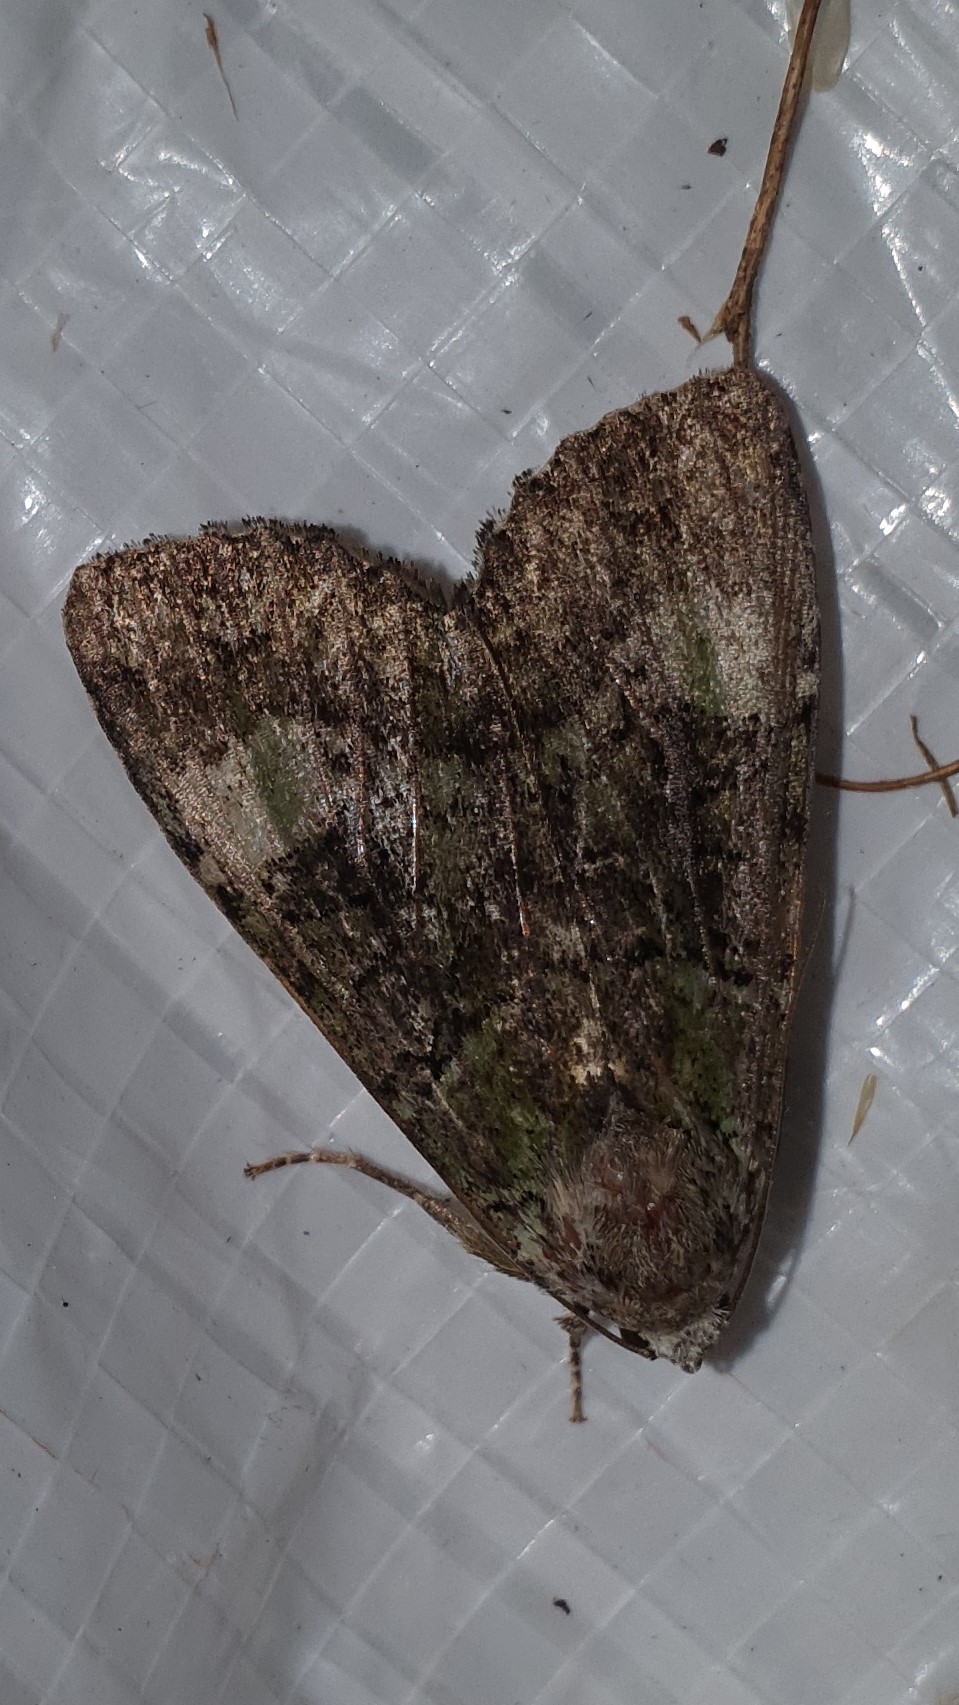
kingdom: Animalia
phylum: Arthropoda
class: Insecta
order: Lepidoptera
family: Noctuidae
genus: Anaplectoides
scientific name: Anaplectoides prasina
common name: Green arches
